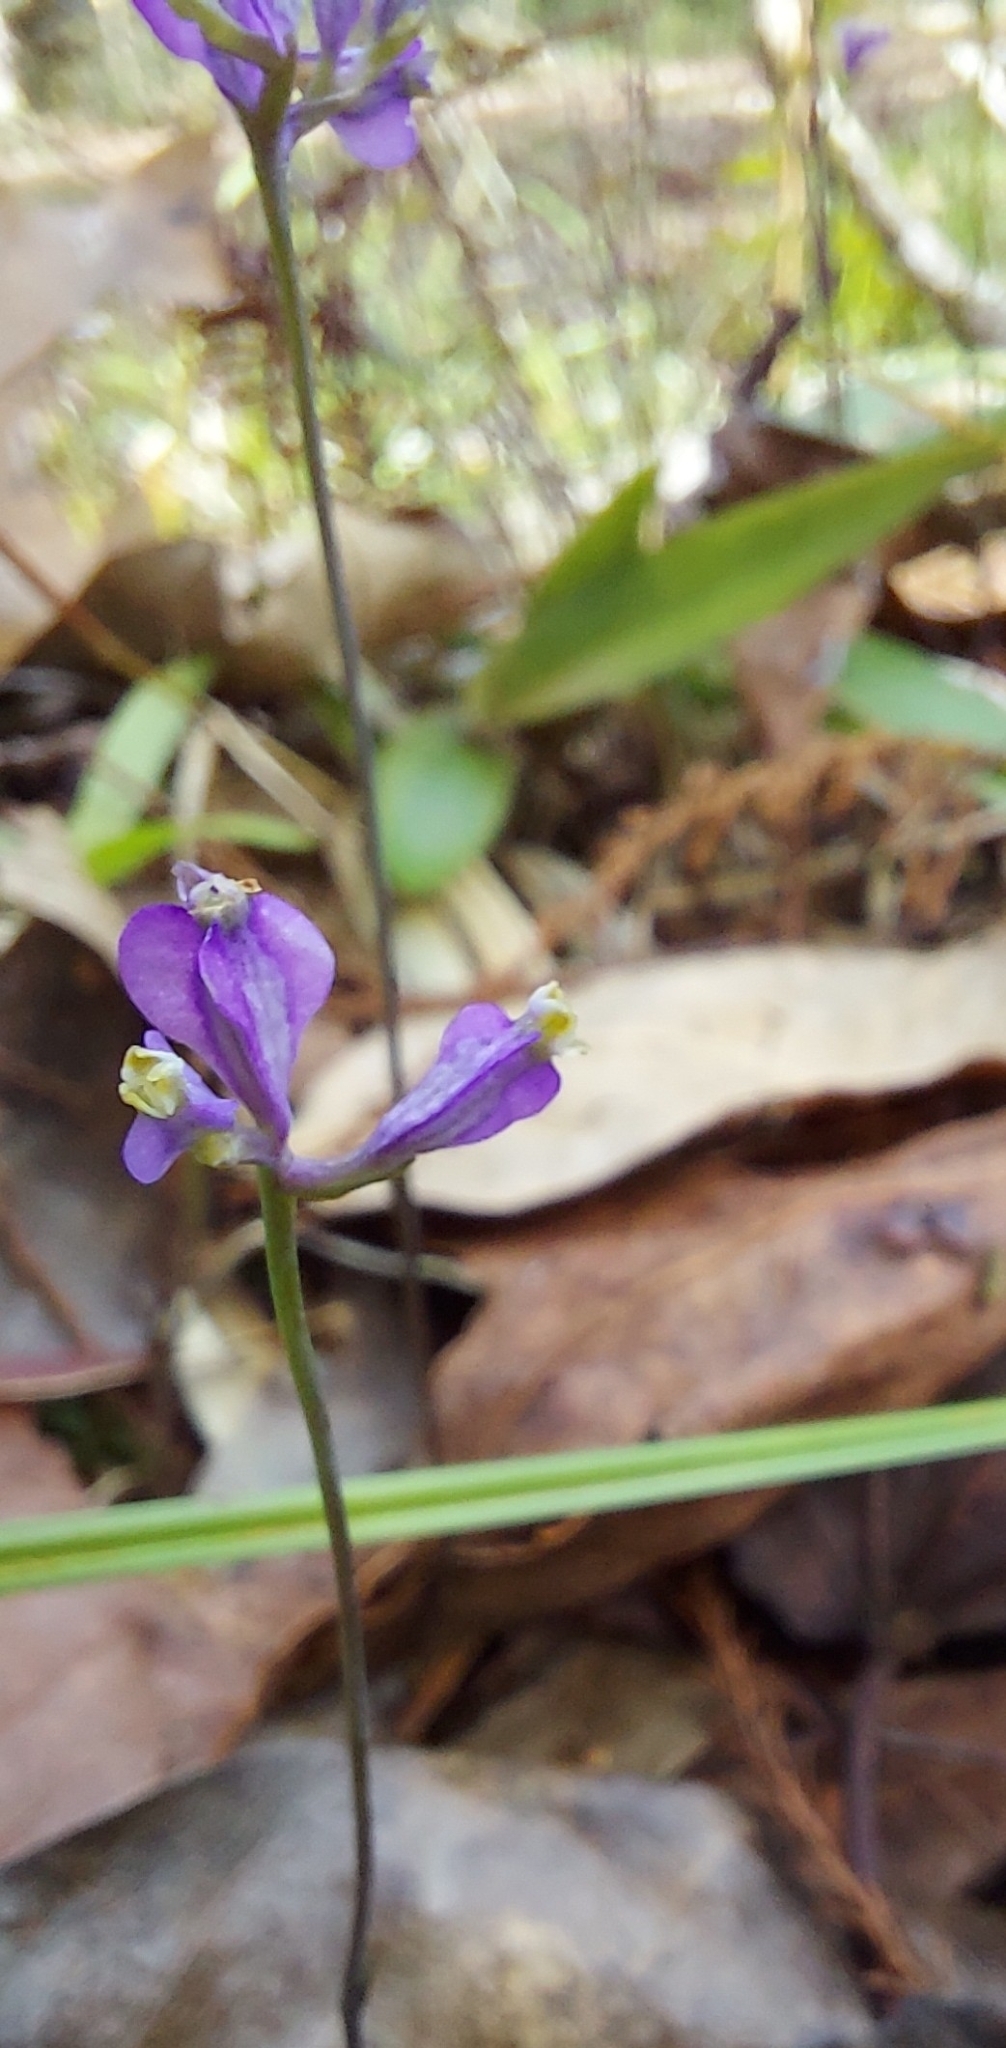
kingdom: Plantae
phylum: Tracheophyta
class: Liliopsida
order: Dioscoreales
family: Burmanniaceae
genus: Burmannia
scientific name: Burmannia biflora
